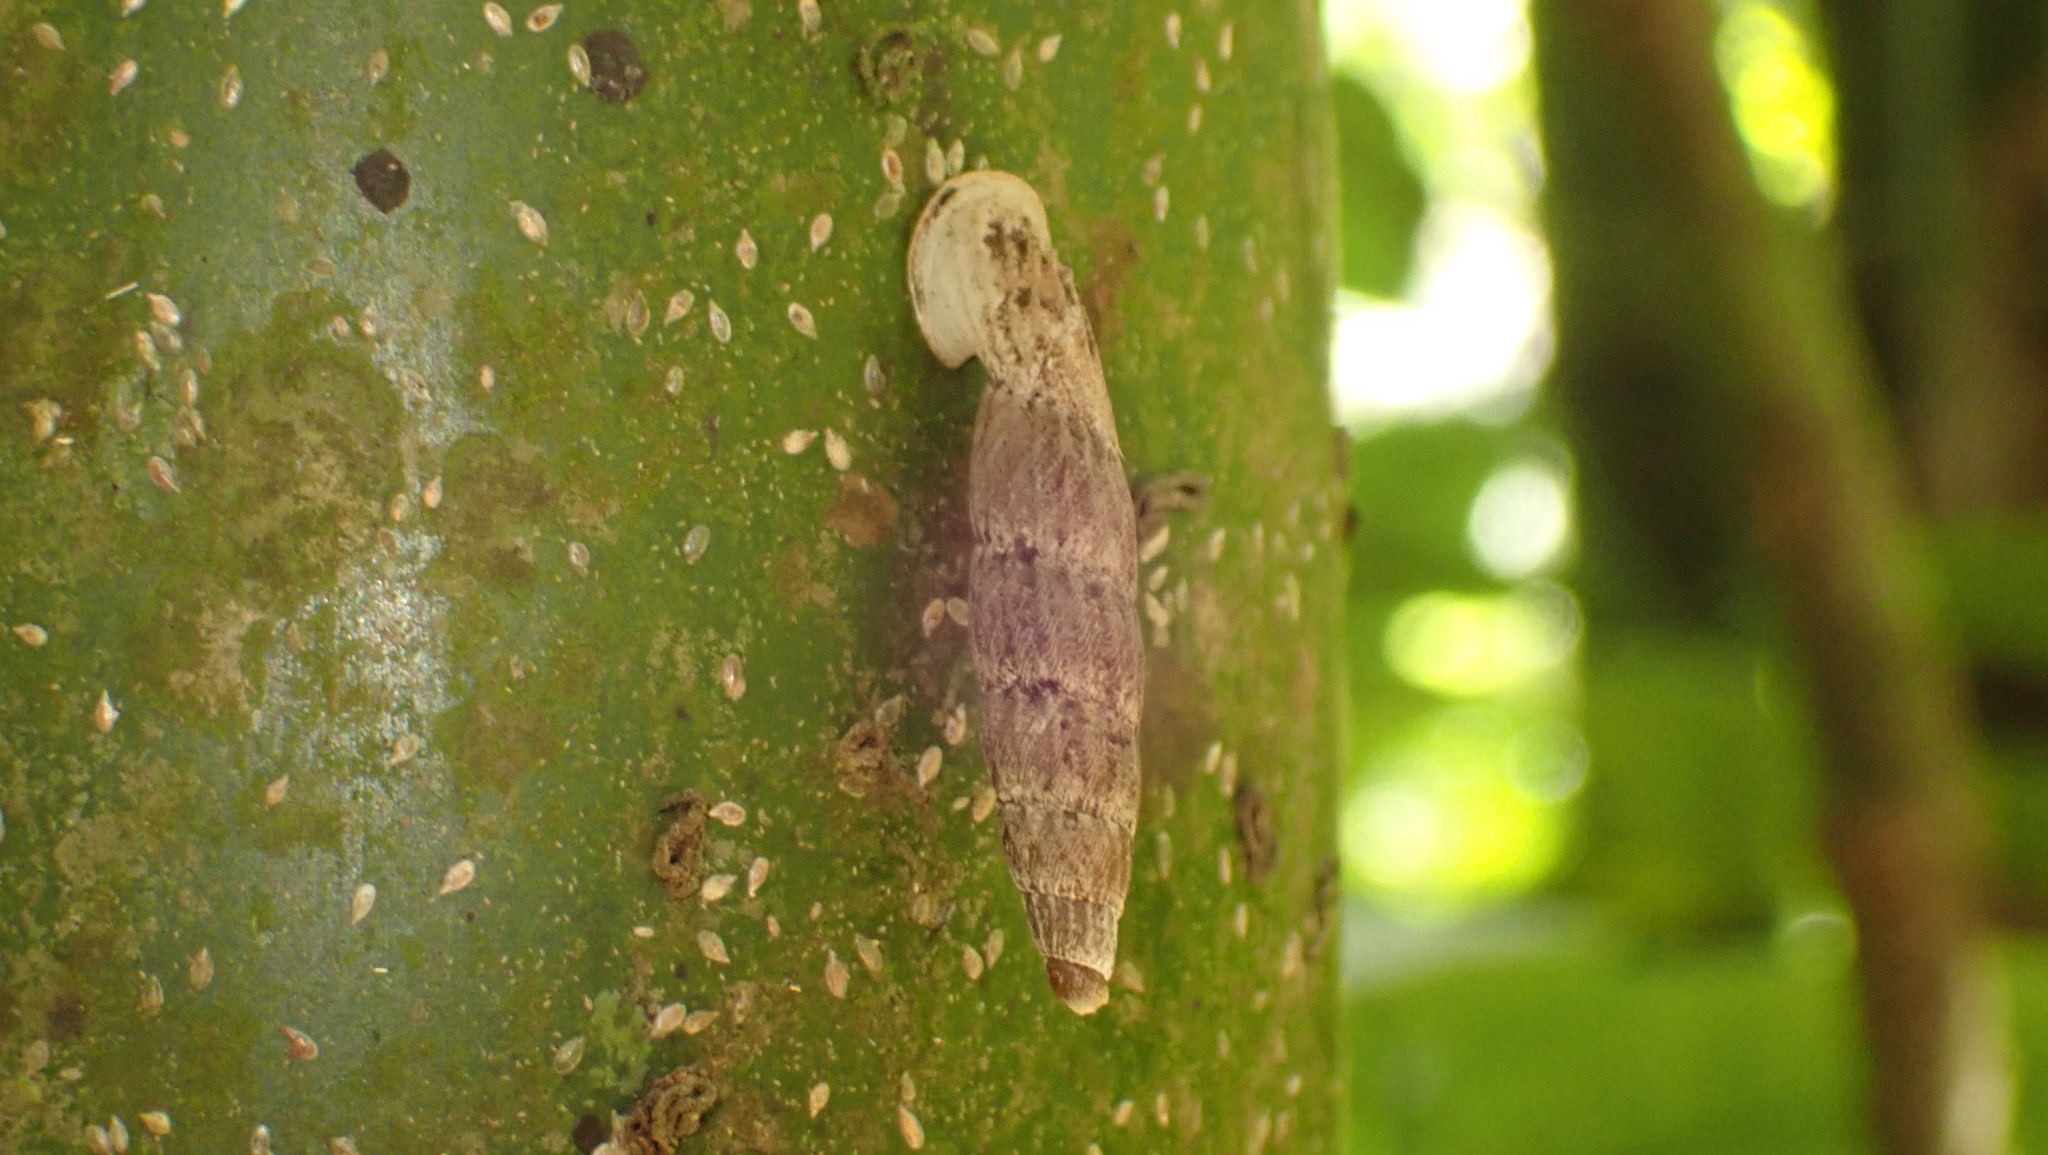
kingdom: Animalia
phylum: Mollusca
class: Gastropoda
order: Stylommatophora
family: Clausiliidae
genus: Nenia
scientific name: Nenia tridens
